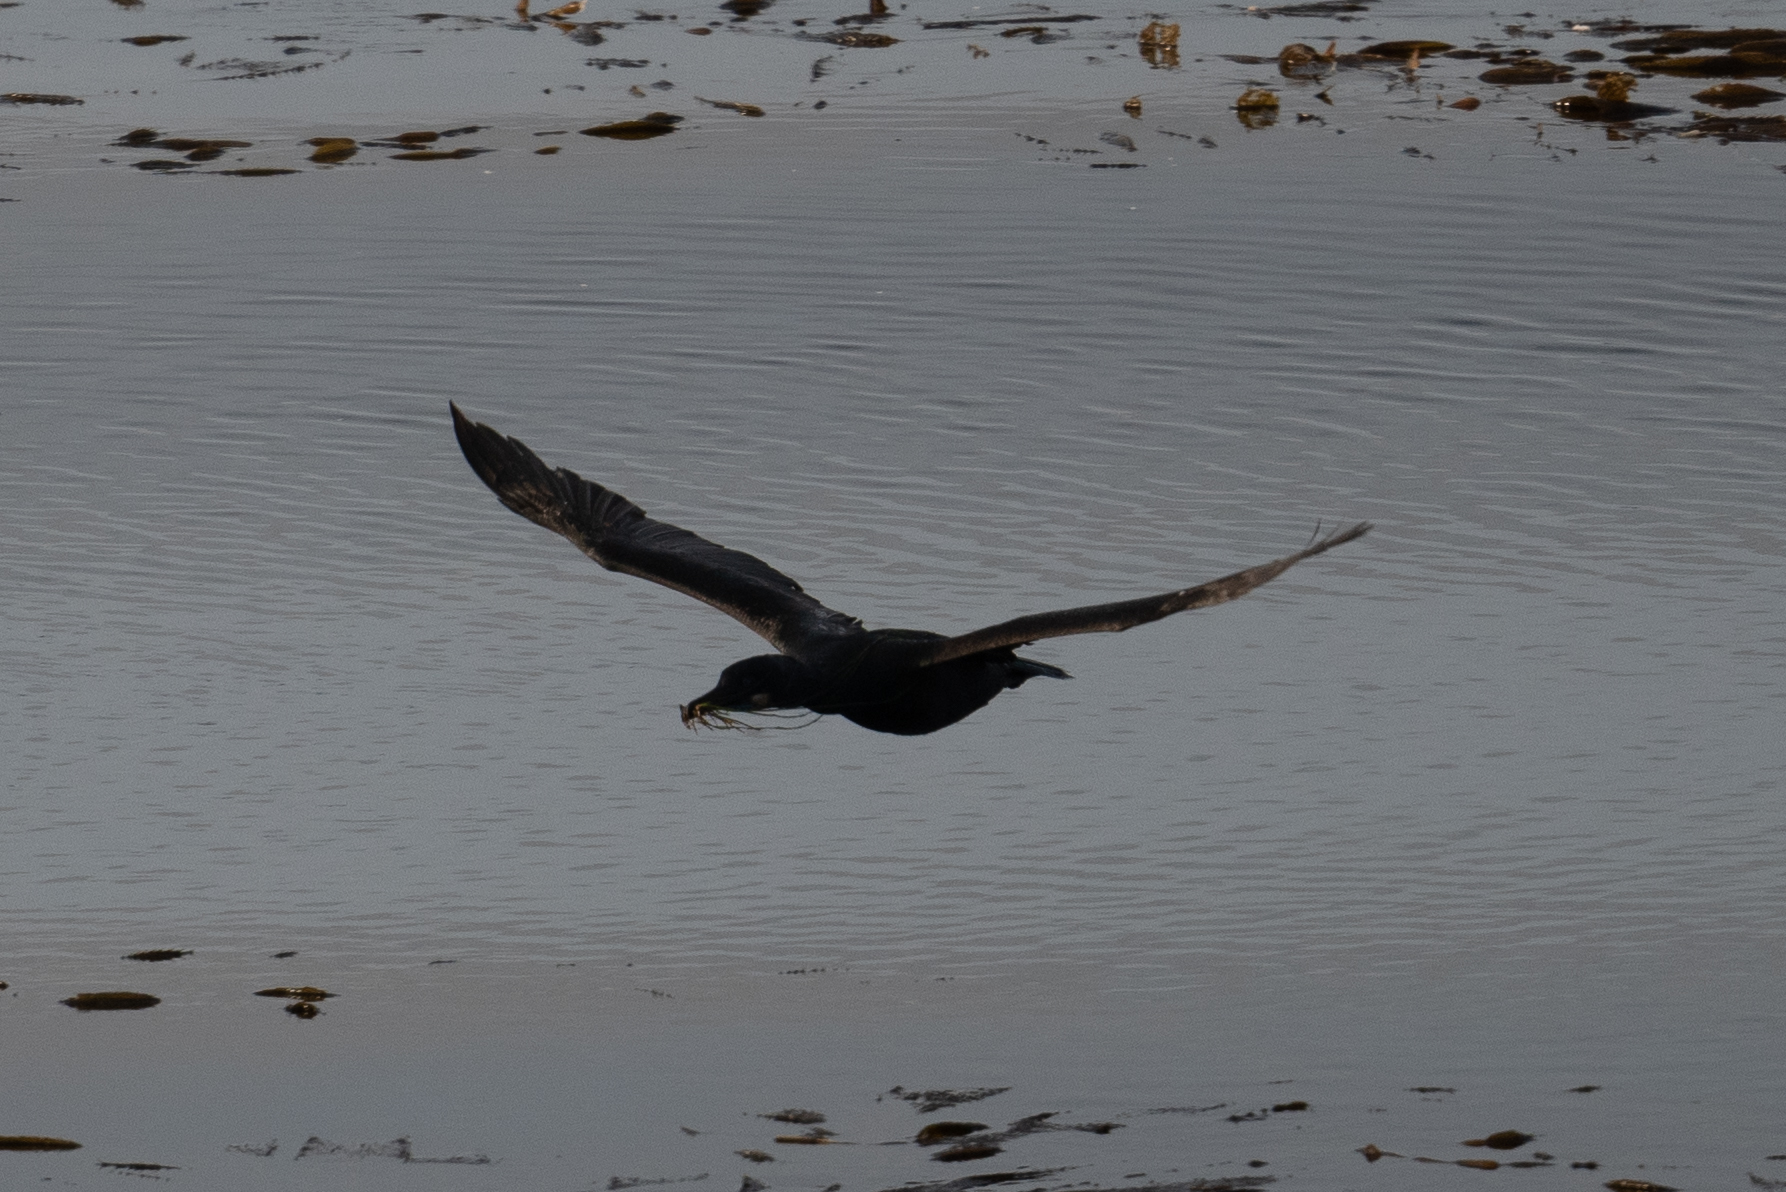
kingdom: Animalia
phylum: Chordata
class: Aves
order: Suliformes
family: Phalacrocoracidae
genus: Urile
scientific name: Urile penicillatus
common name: Brandt's cormorant
